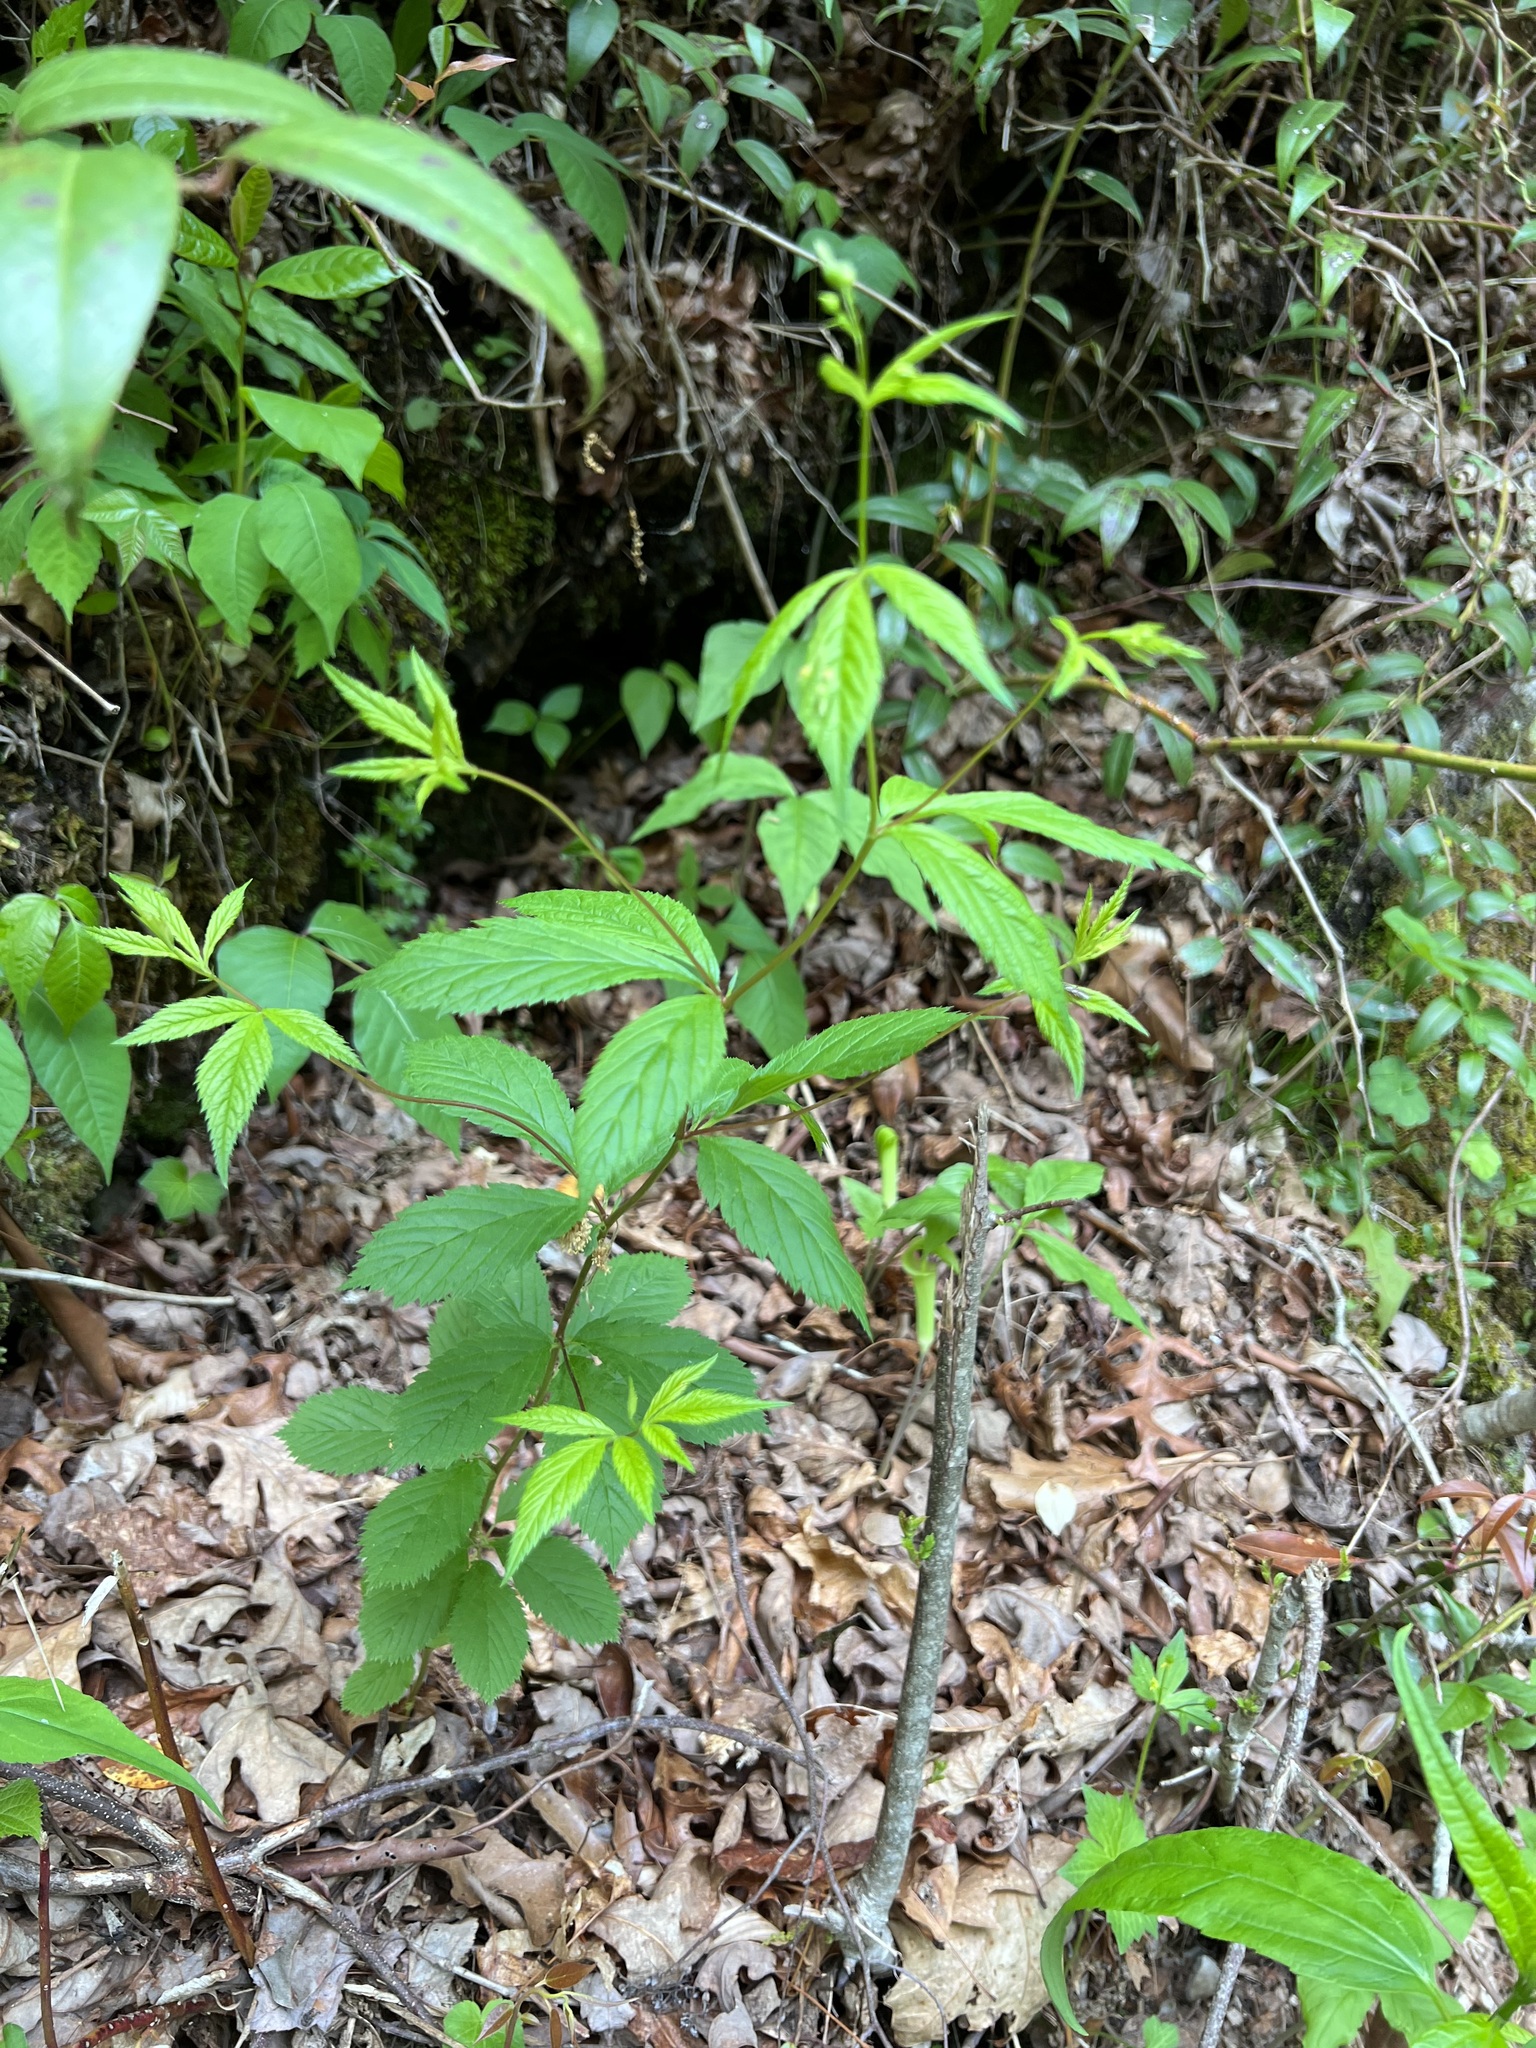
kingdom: Plantae
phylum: Tracheophyta
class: Magnoliopsida
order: Rosales
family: Rosaceae
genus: Gillenia
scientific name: Gillenia trifoliata
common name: Bowman's-root
